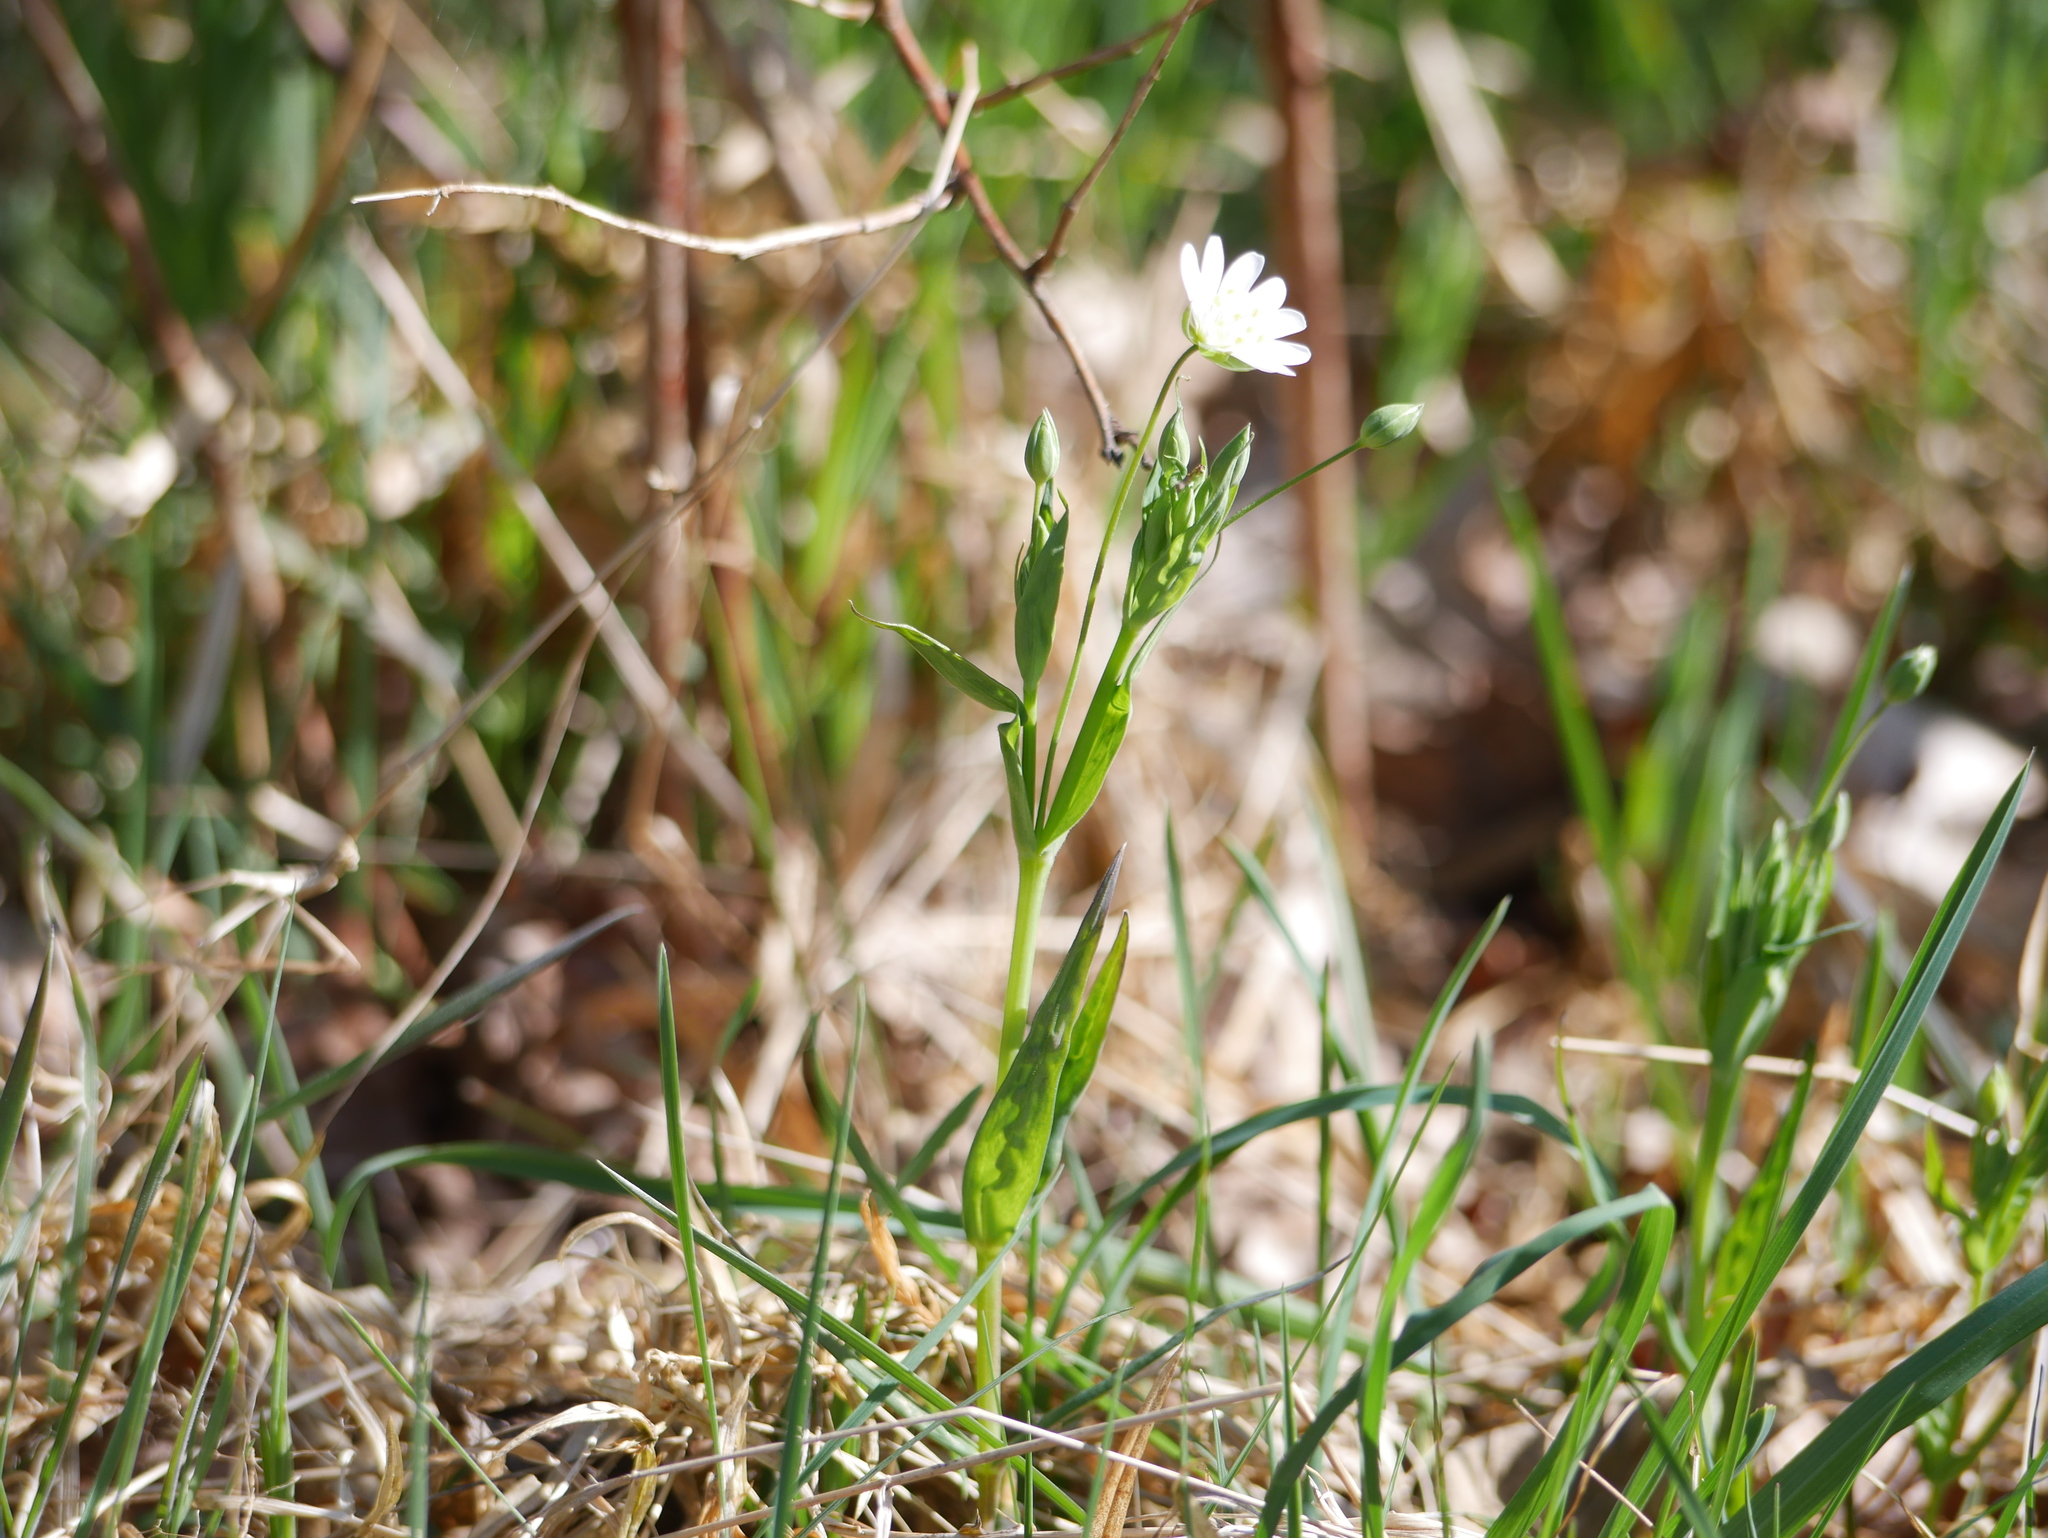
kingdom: Plantae
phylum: Tracheophyta
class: Magnoliopsida
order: Caryophyllales
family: Caryophyllaceae
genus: Rabelera
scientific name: Rabelera holostea
